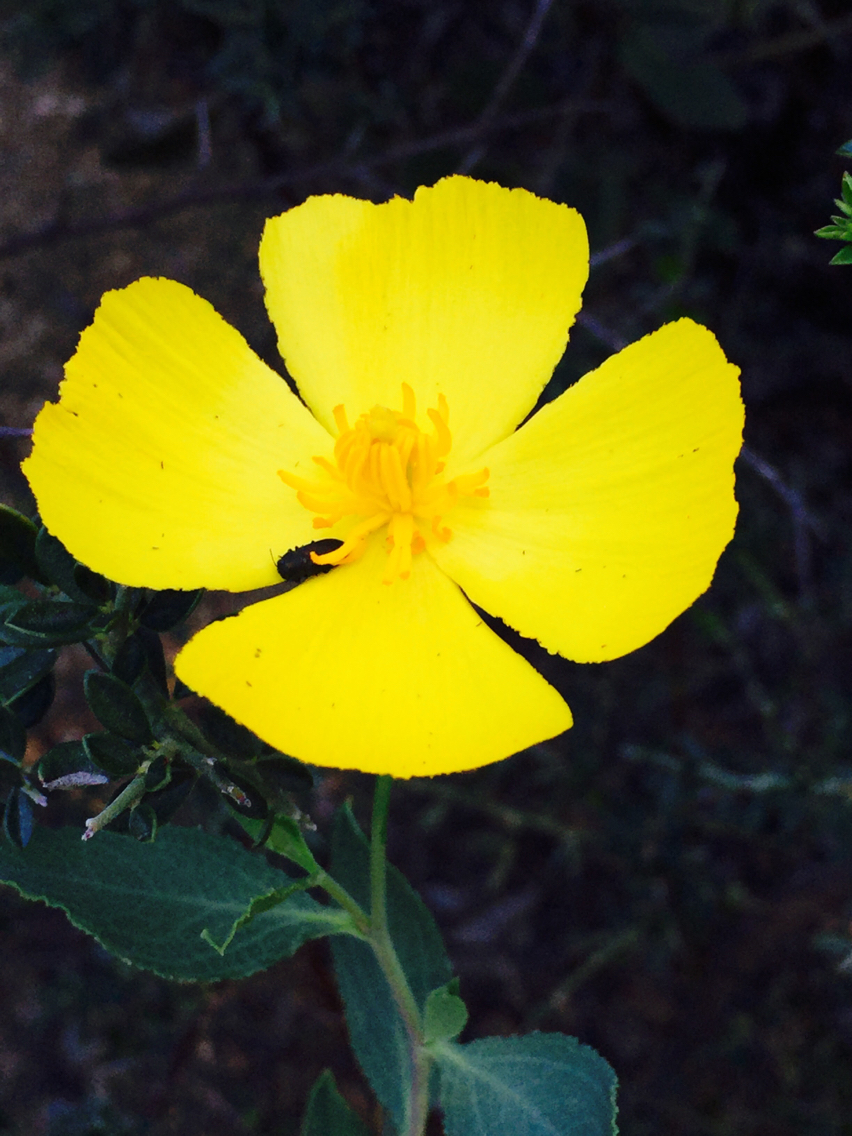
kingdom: Plantae
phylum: Tracheophyta
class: Magnoliopsida
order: Ranunculales
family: Papaveraceae
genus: Dendromecon
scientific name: Dendromecon rigida
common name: Tree poppy
